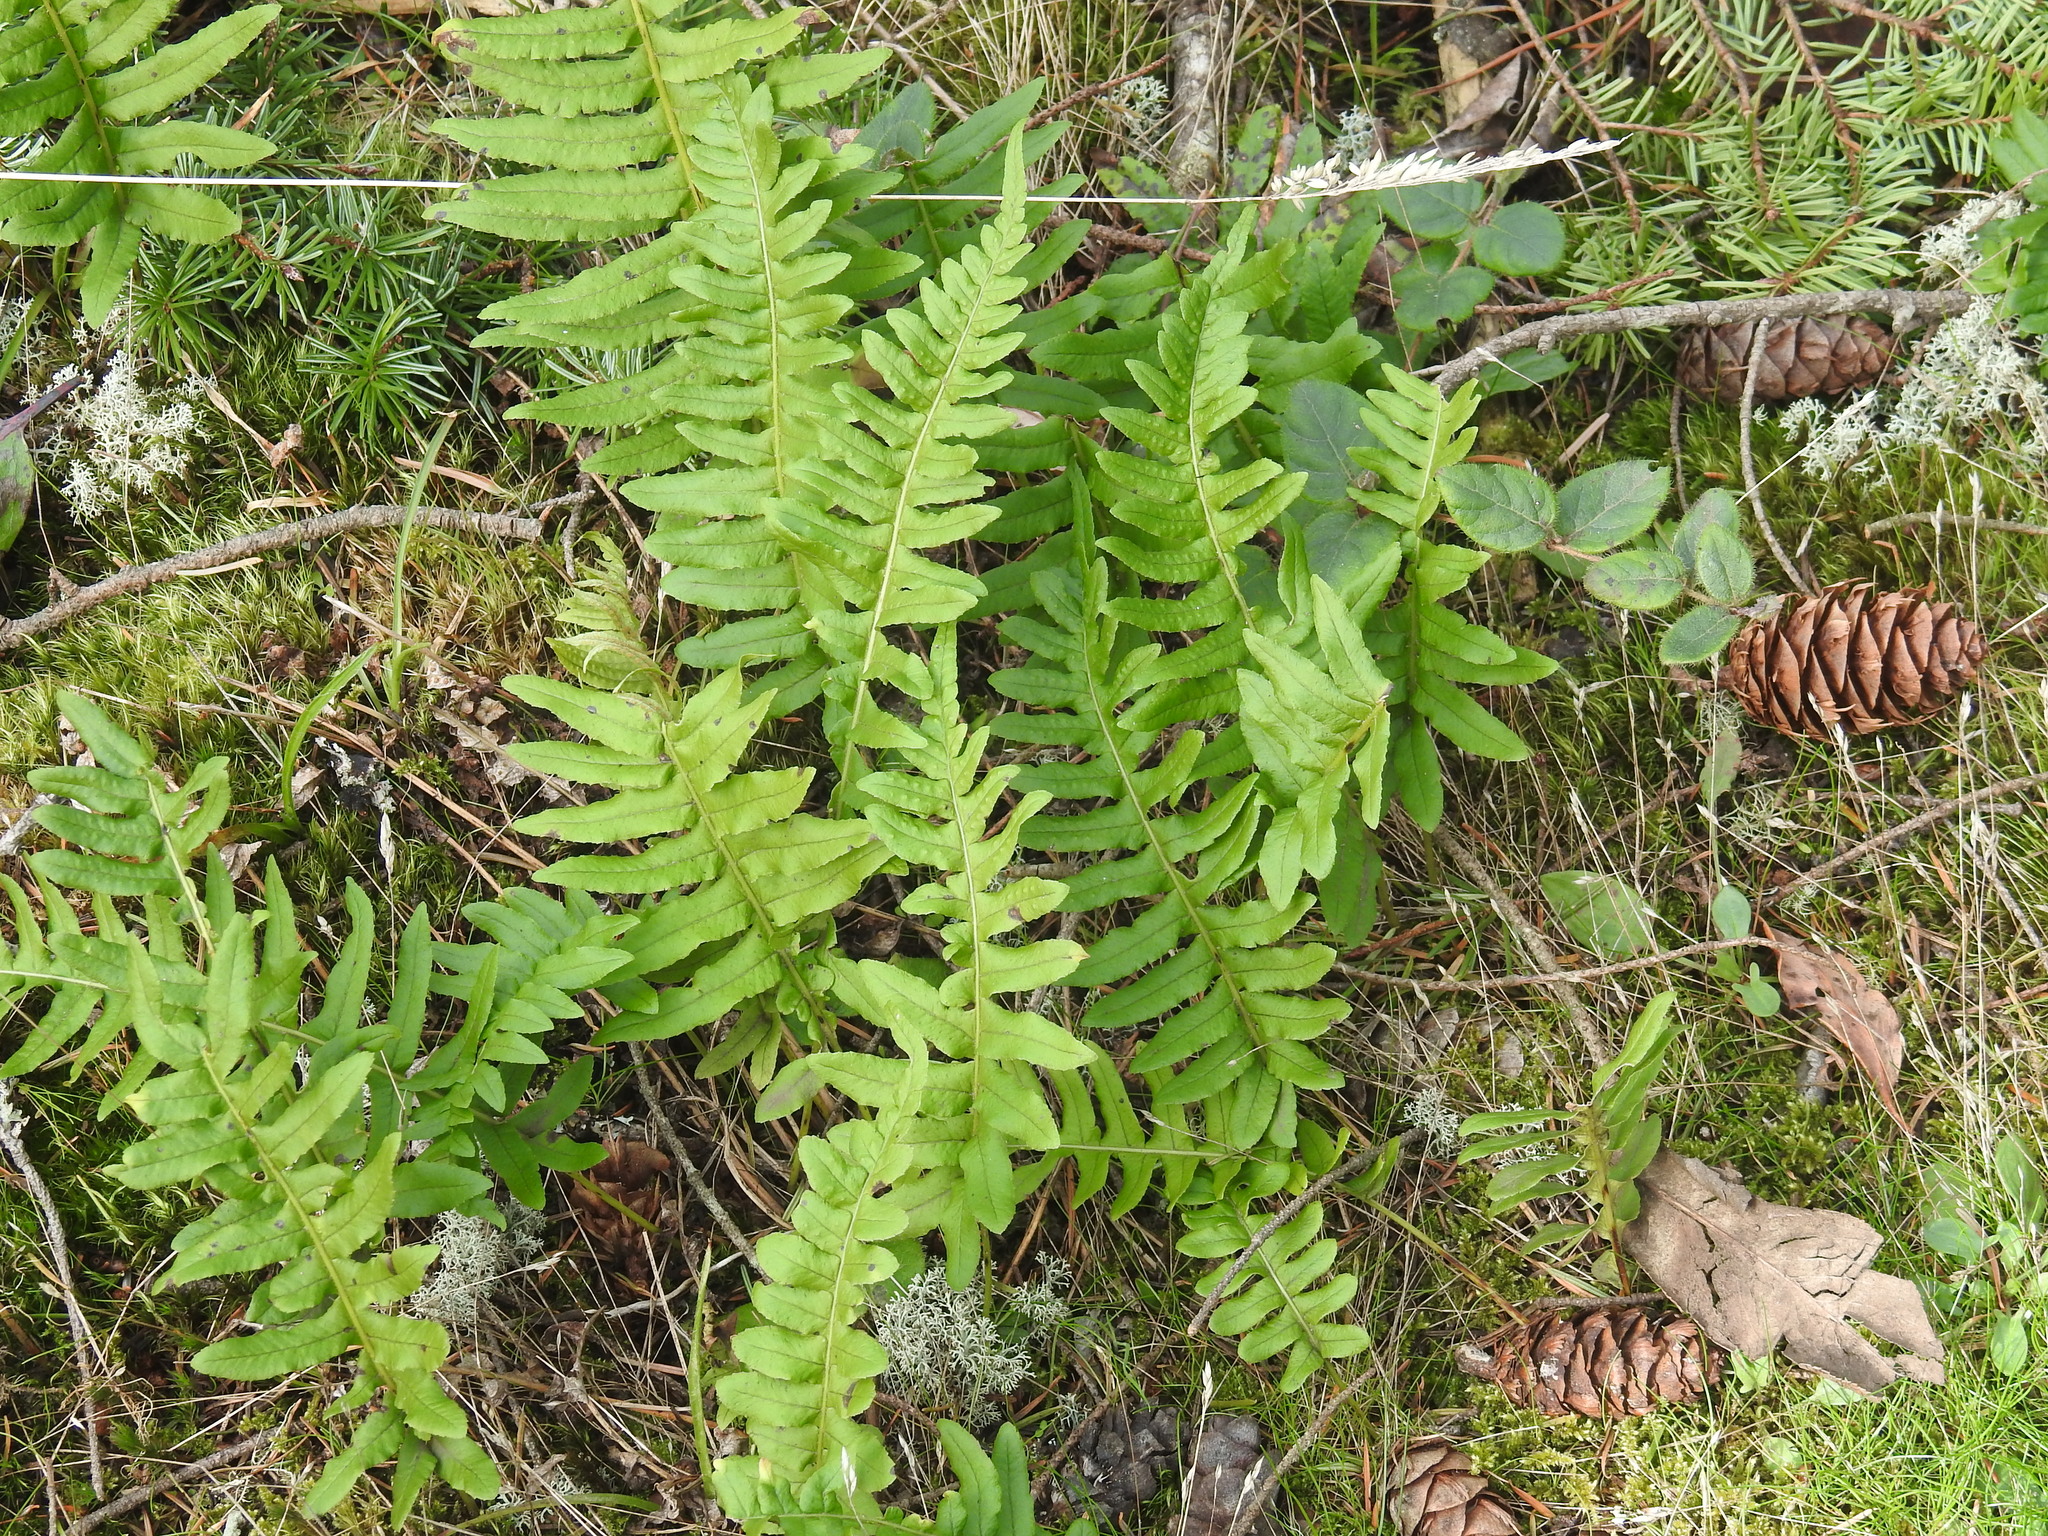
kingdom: Plantae
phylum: Tracheophyta
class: Polypodiopsida
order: Polypodiales
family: Polypodiaceae
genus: Polypodium
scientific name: Polypodium glycyrrhiza
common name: Licorice fern
